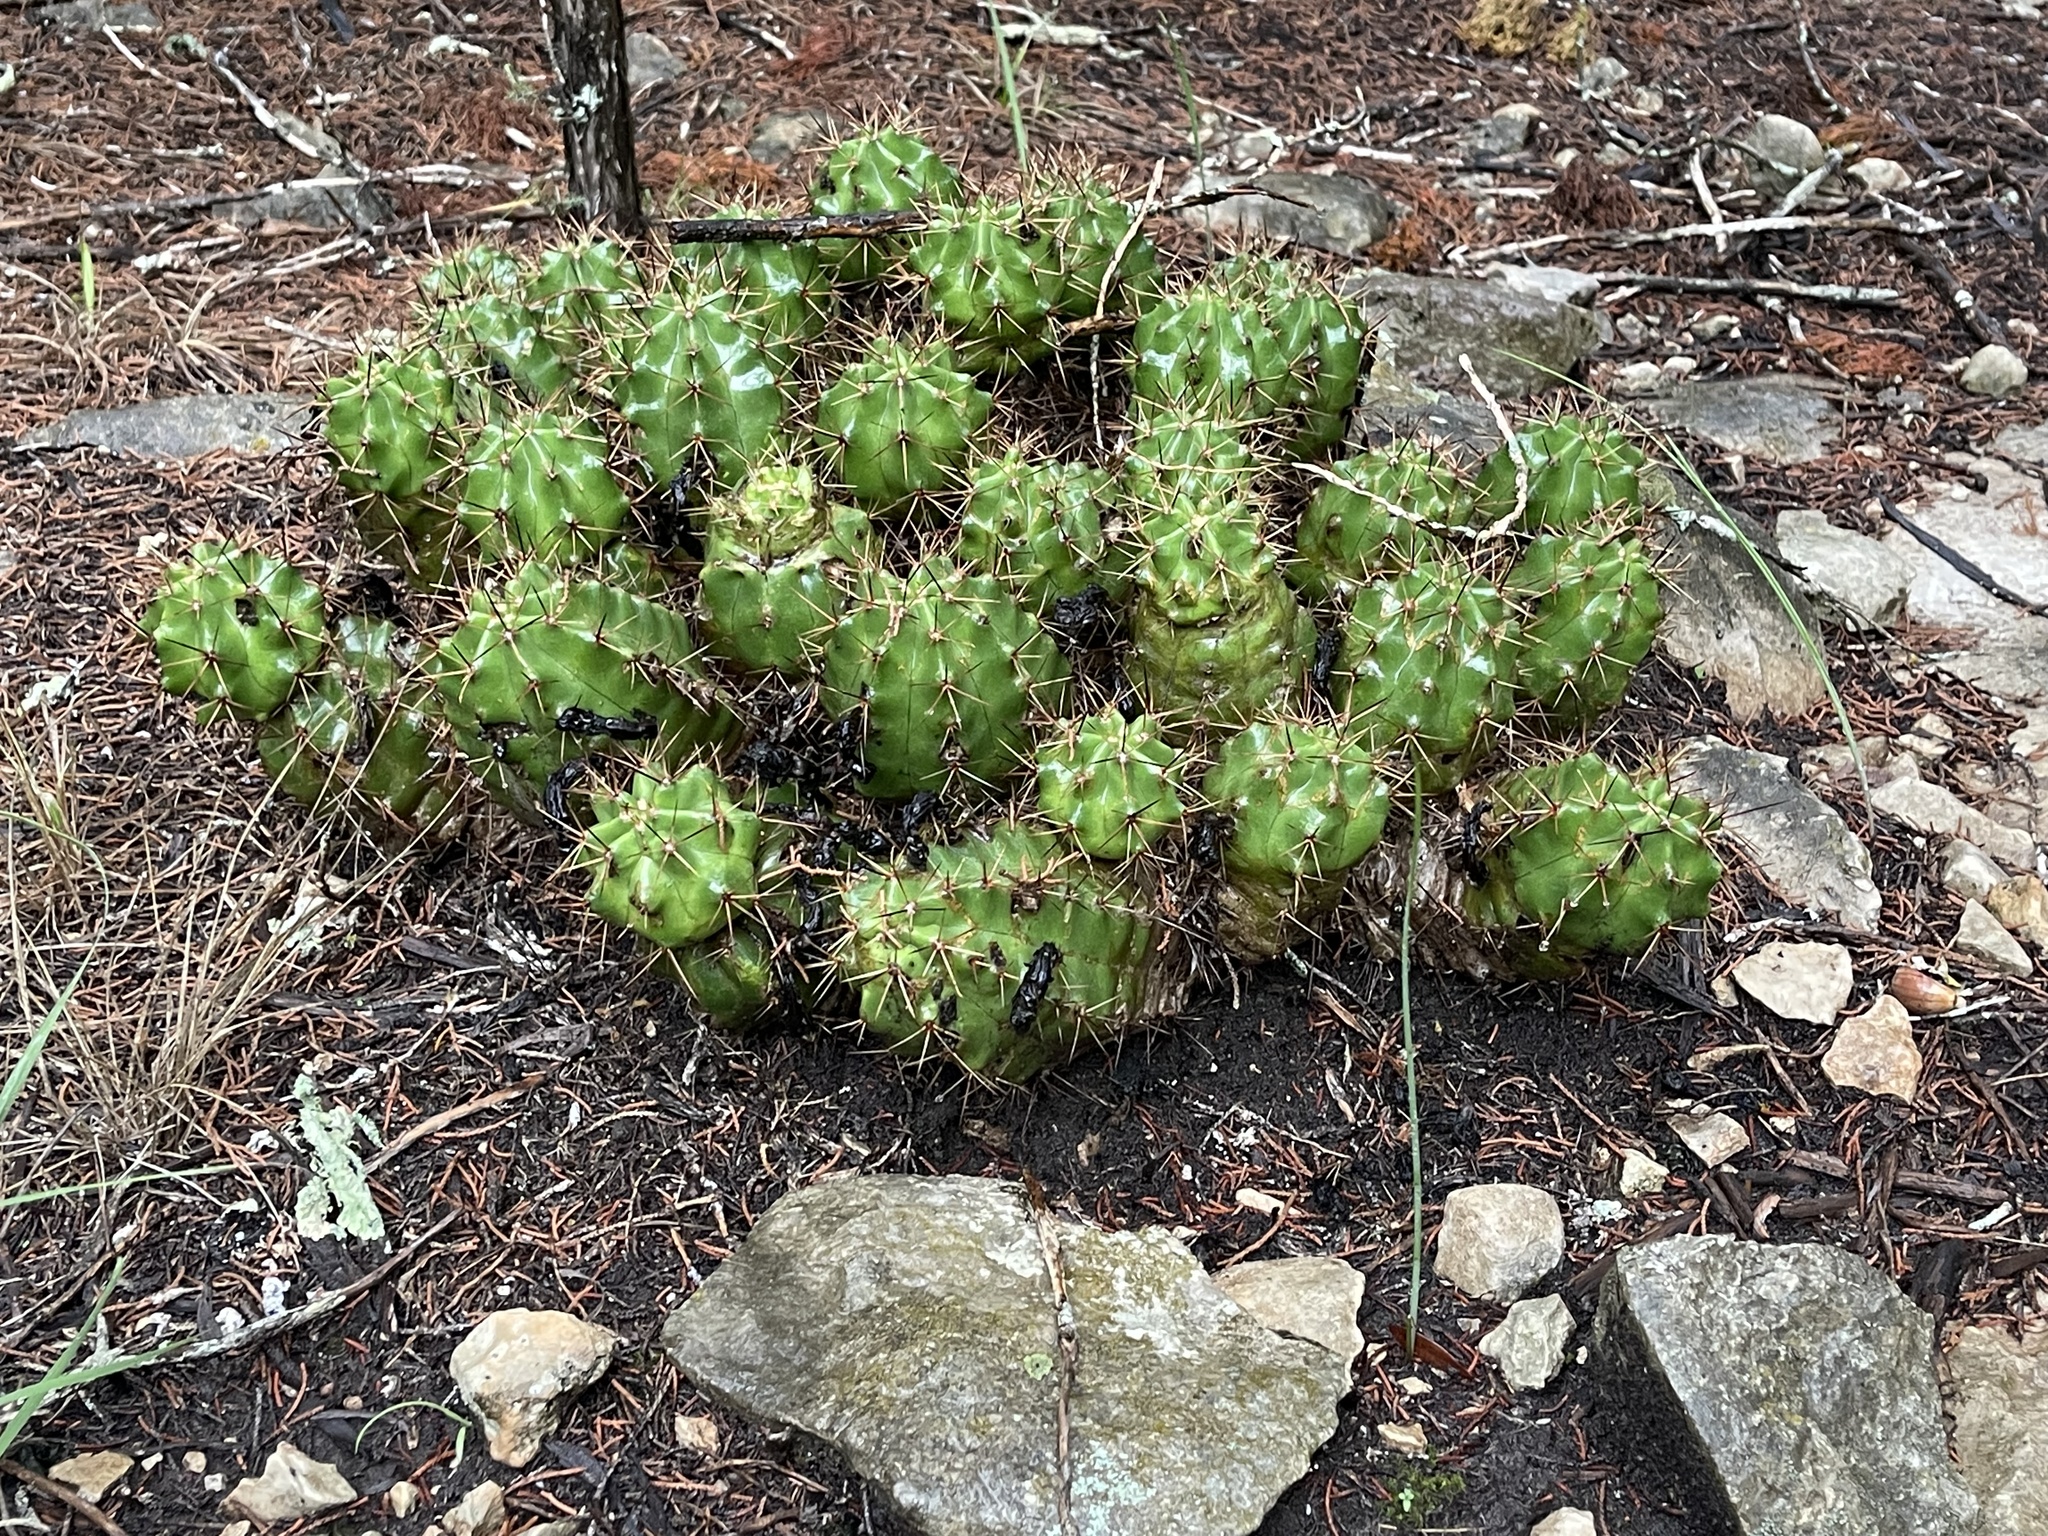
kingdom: Plantae
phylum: Tracheophyta
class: Magnoliopsida
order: Caryophyllales
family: Cactaceae
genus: Echinocereus
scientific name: Echinocereus coccineus
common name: Scarlet hedgehog cactus
